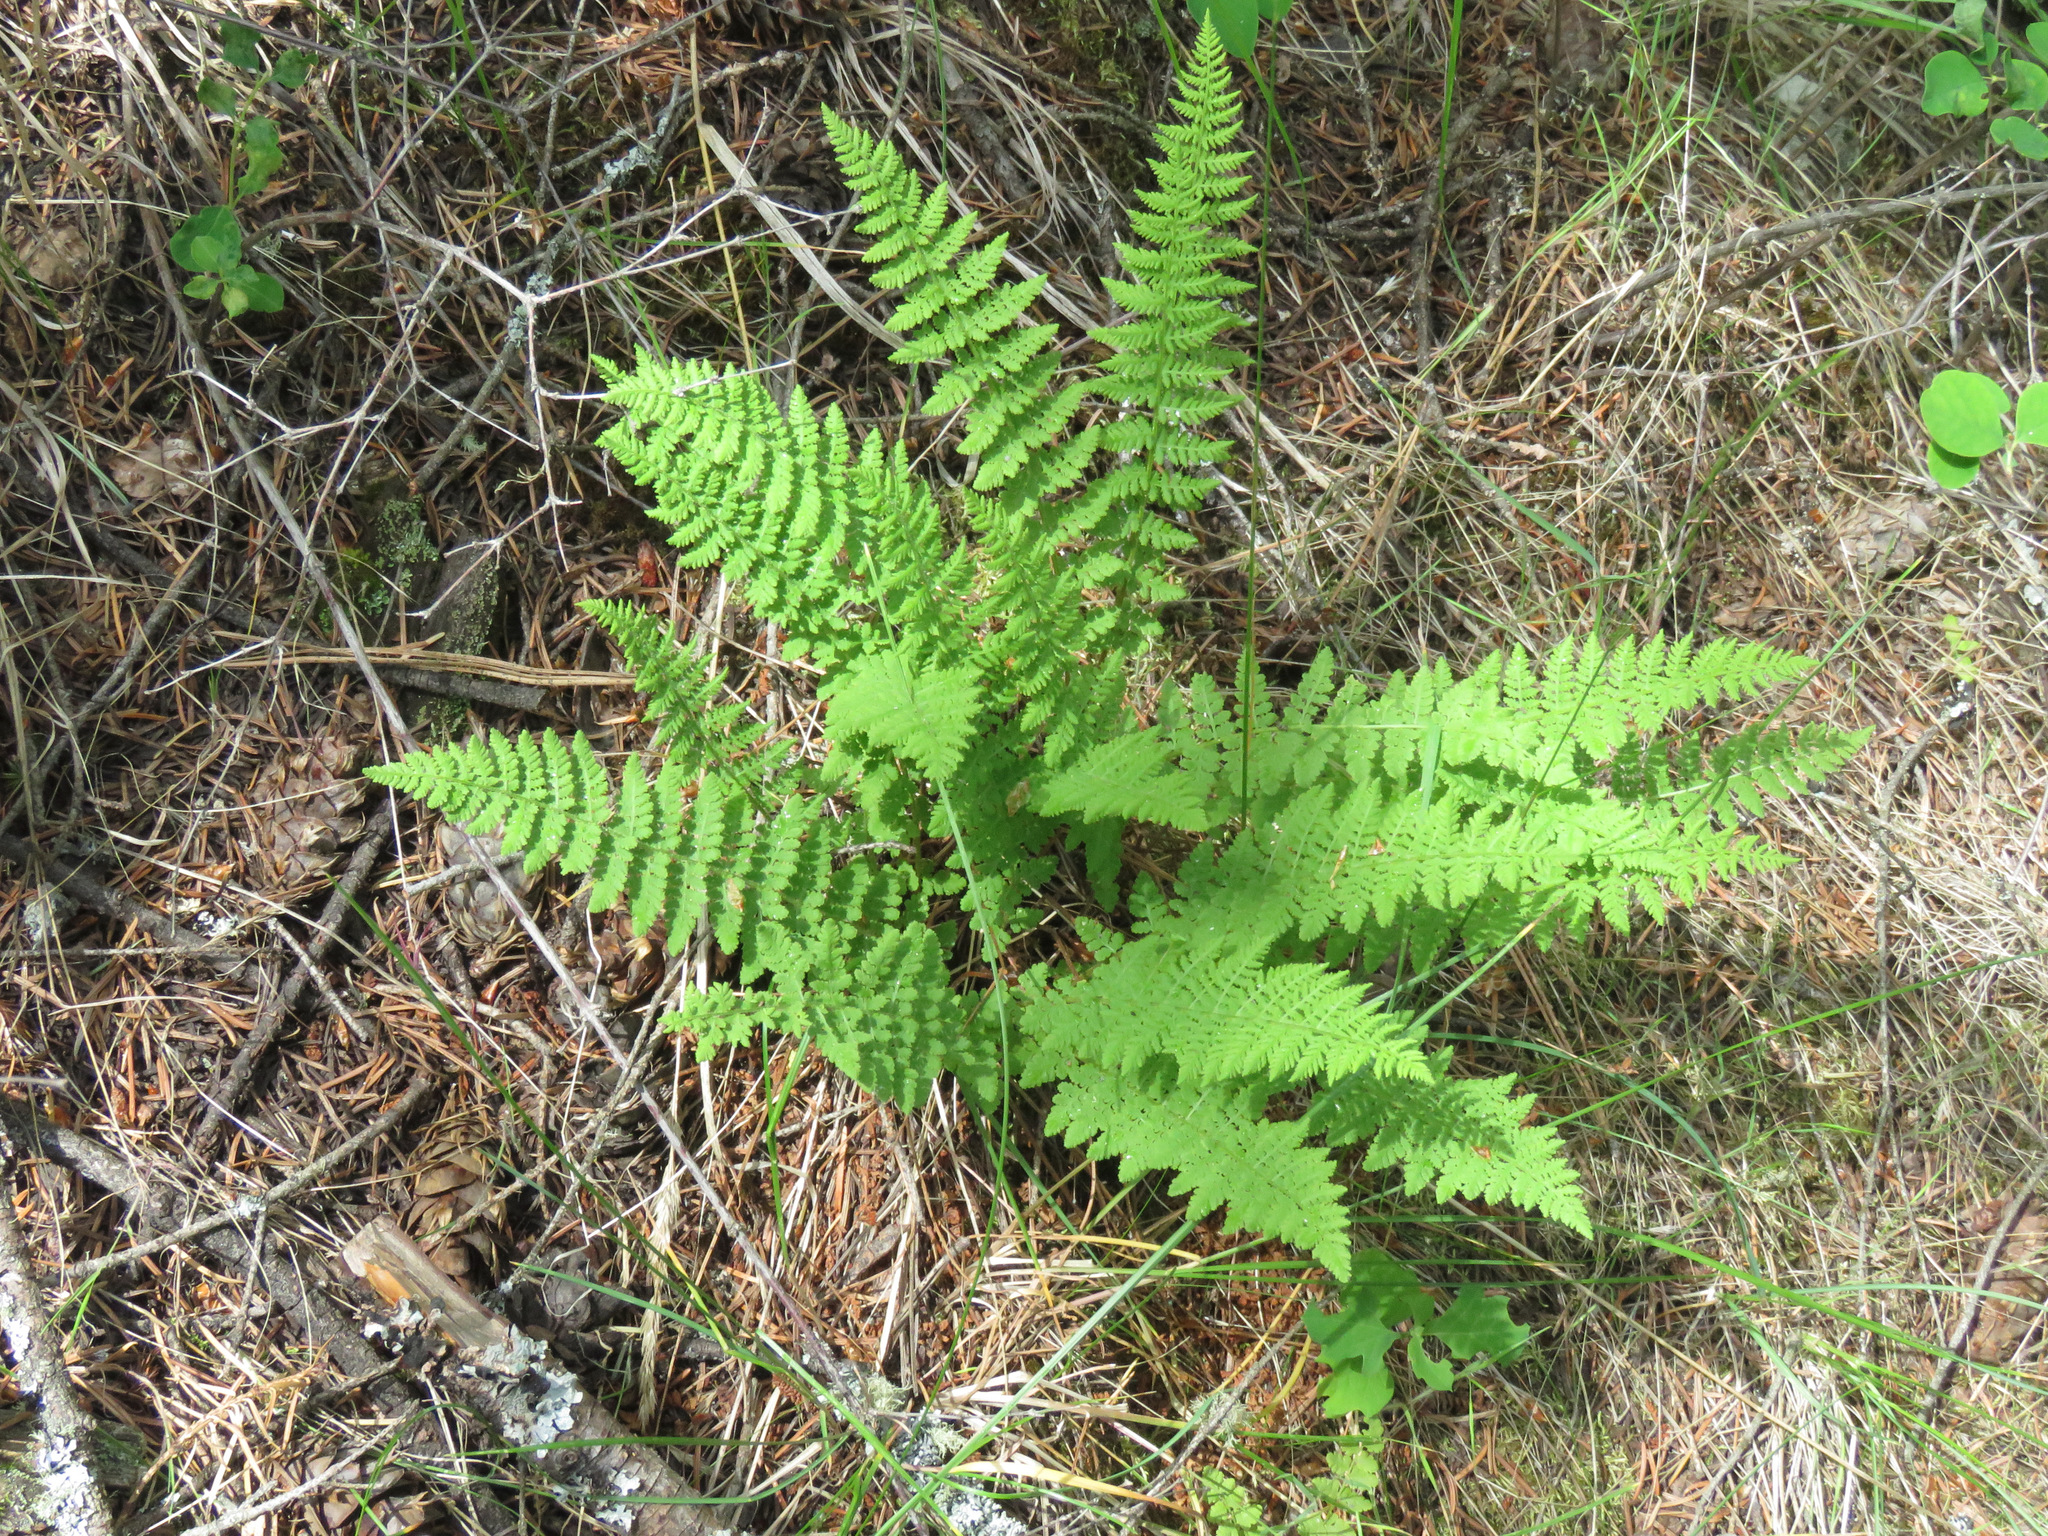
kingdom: Plantae
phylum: Tracheophyta
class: Polypodiopsida
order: Polypodiales
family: Woodsiaceae
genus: Physematium
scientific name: Physematium scopulinum
